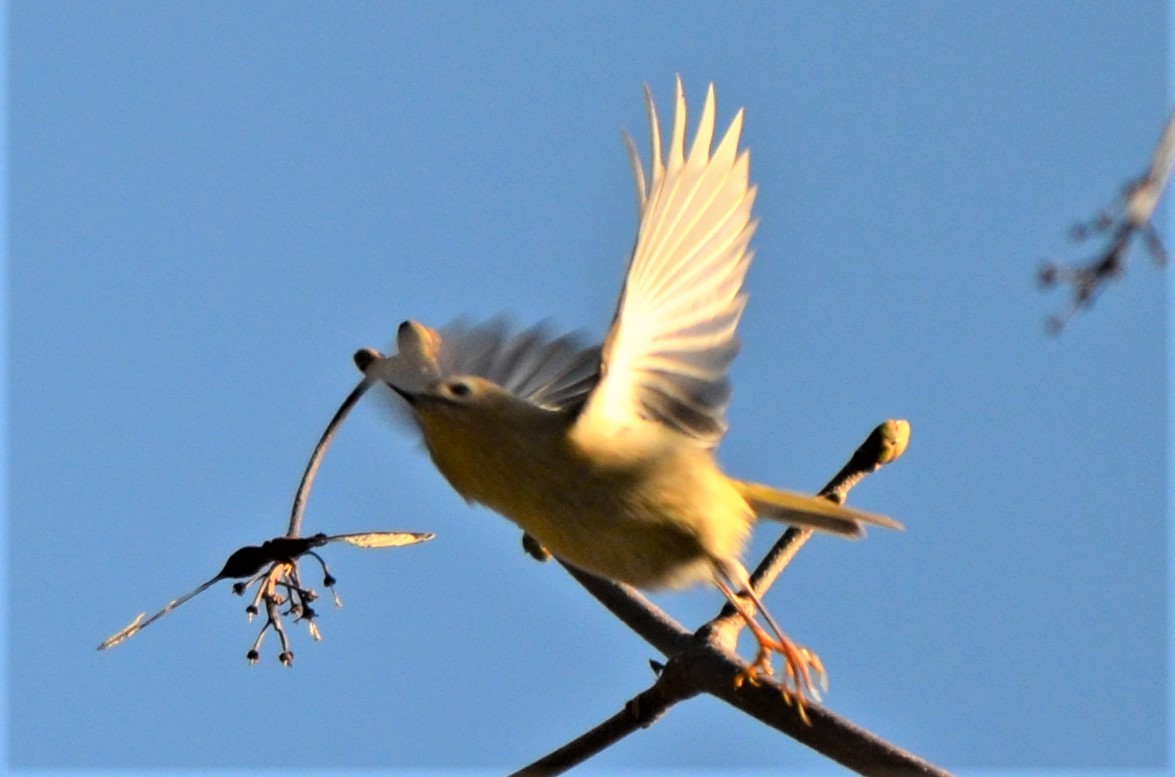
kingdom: Animalia
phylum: Chordata
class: Aves
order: Passeriformes
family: Regulidae
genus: Regulus
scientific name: Regulus regulus
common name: Goldcrest
